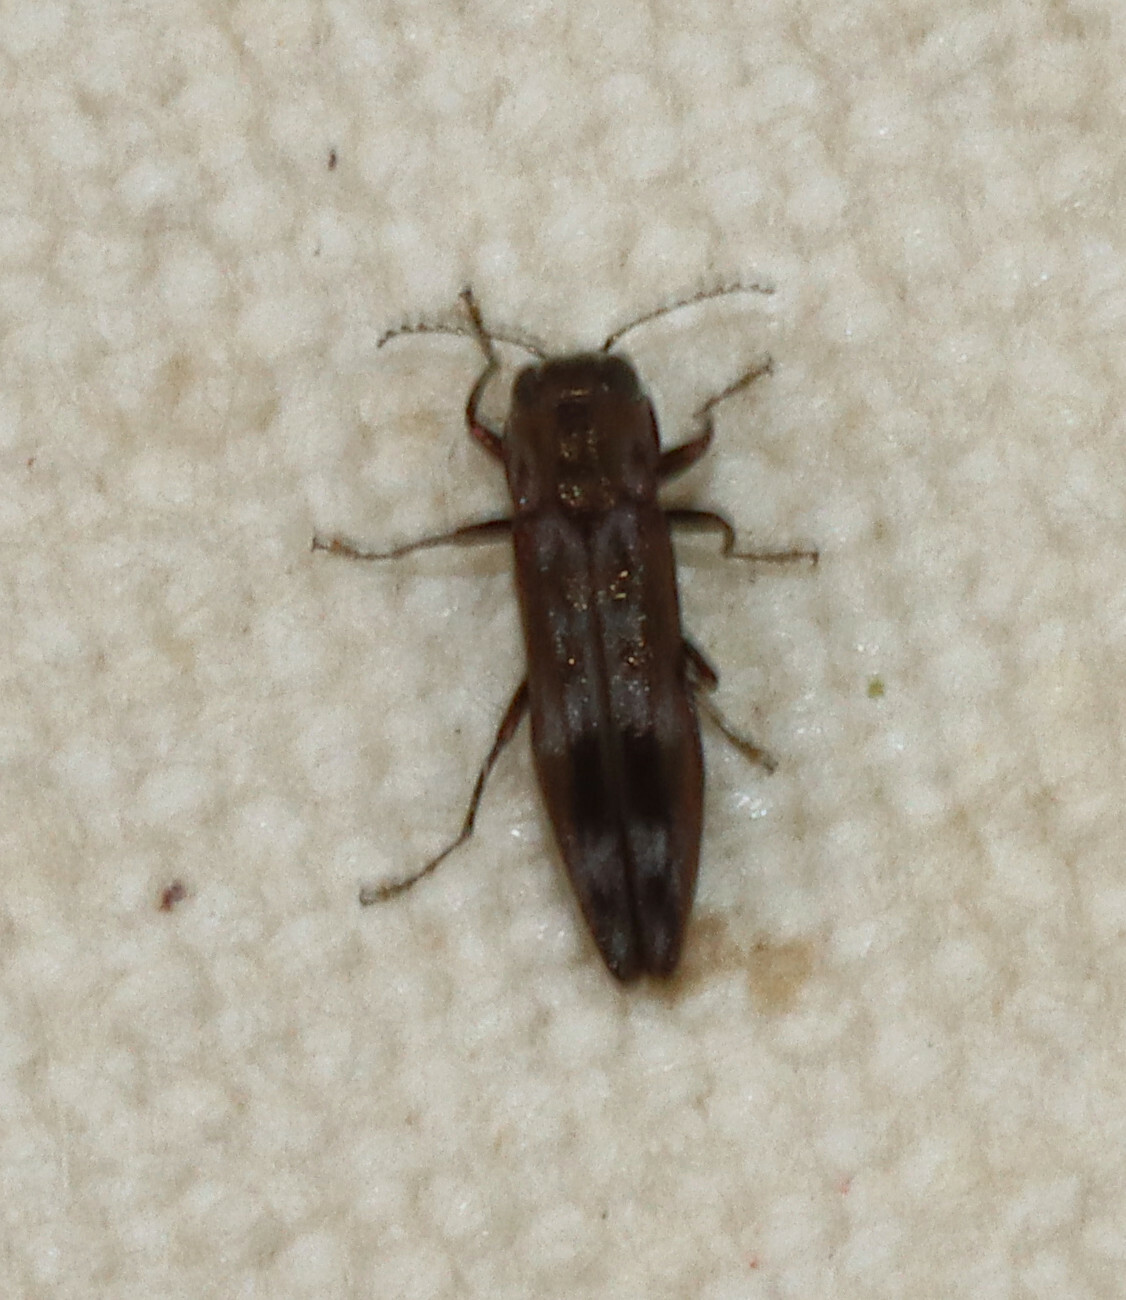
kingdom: Animalia
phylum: Arthropoda
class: Insecta
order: Coleoptera
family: Buprestidae
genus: Agrilus
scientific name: Agrilus lecontei
